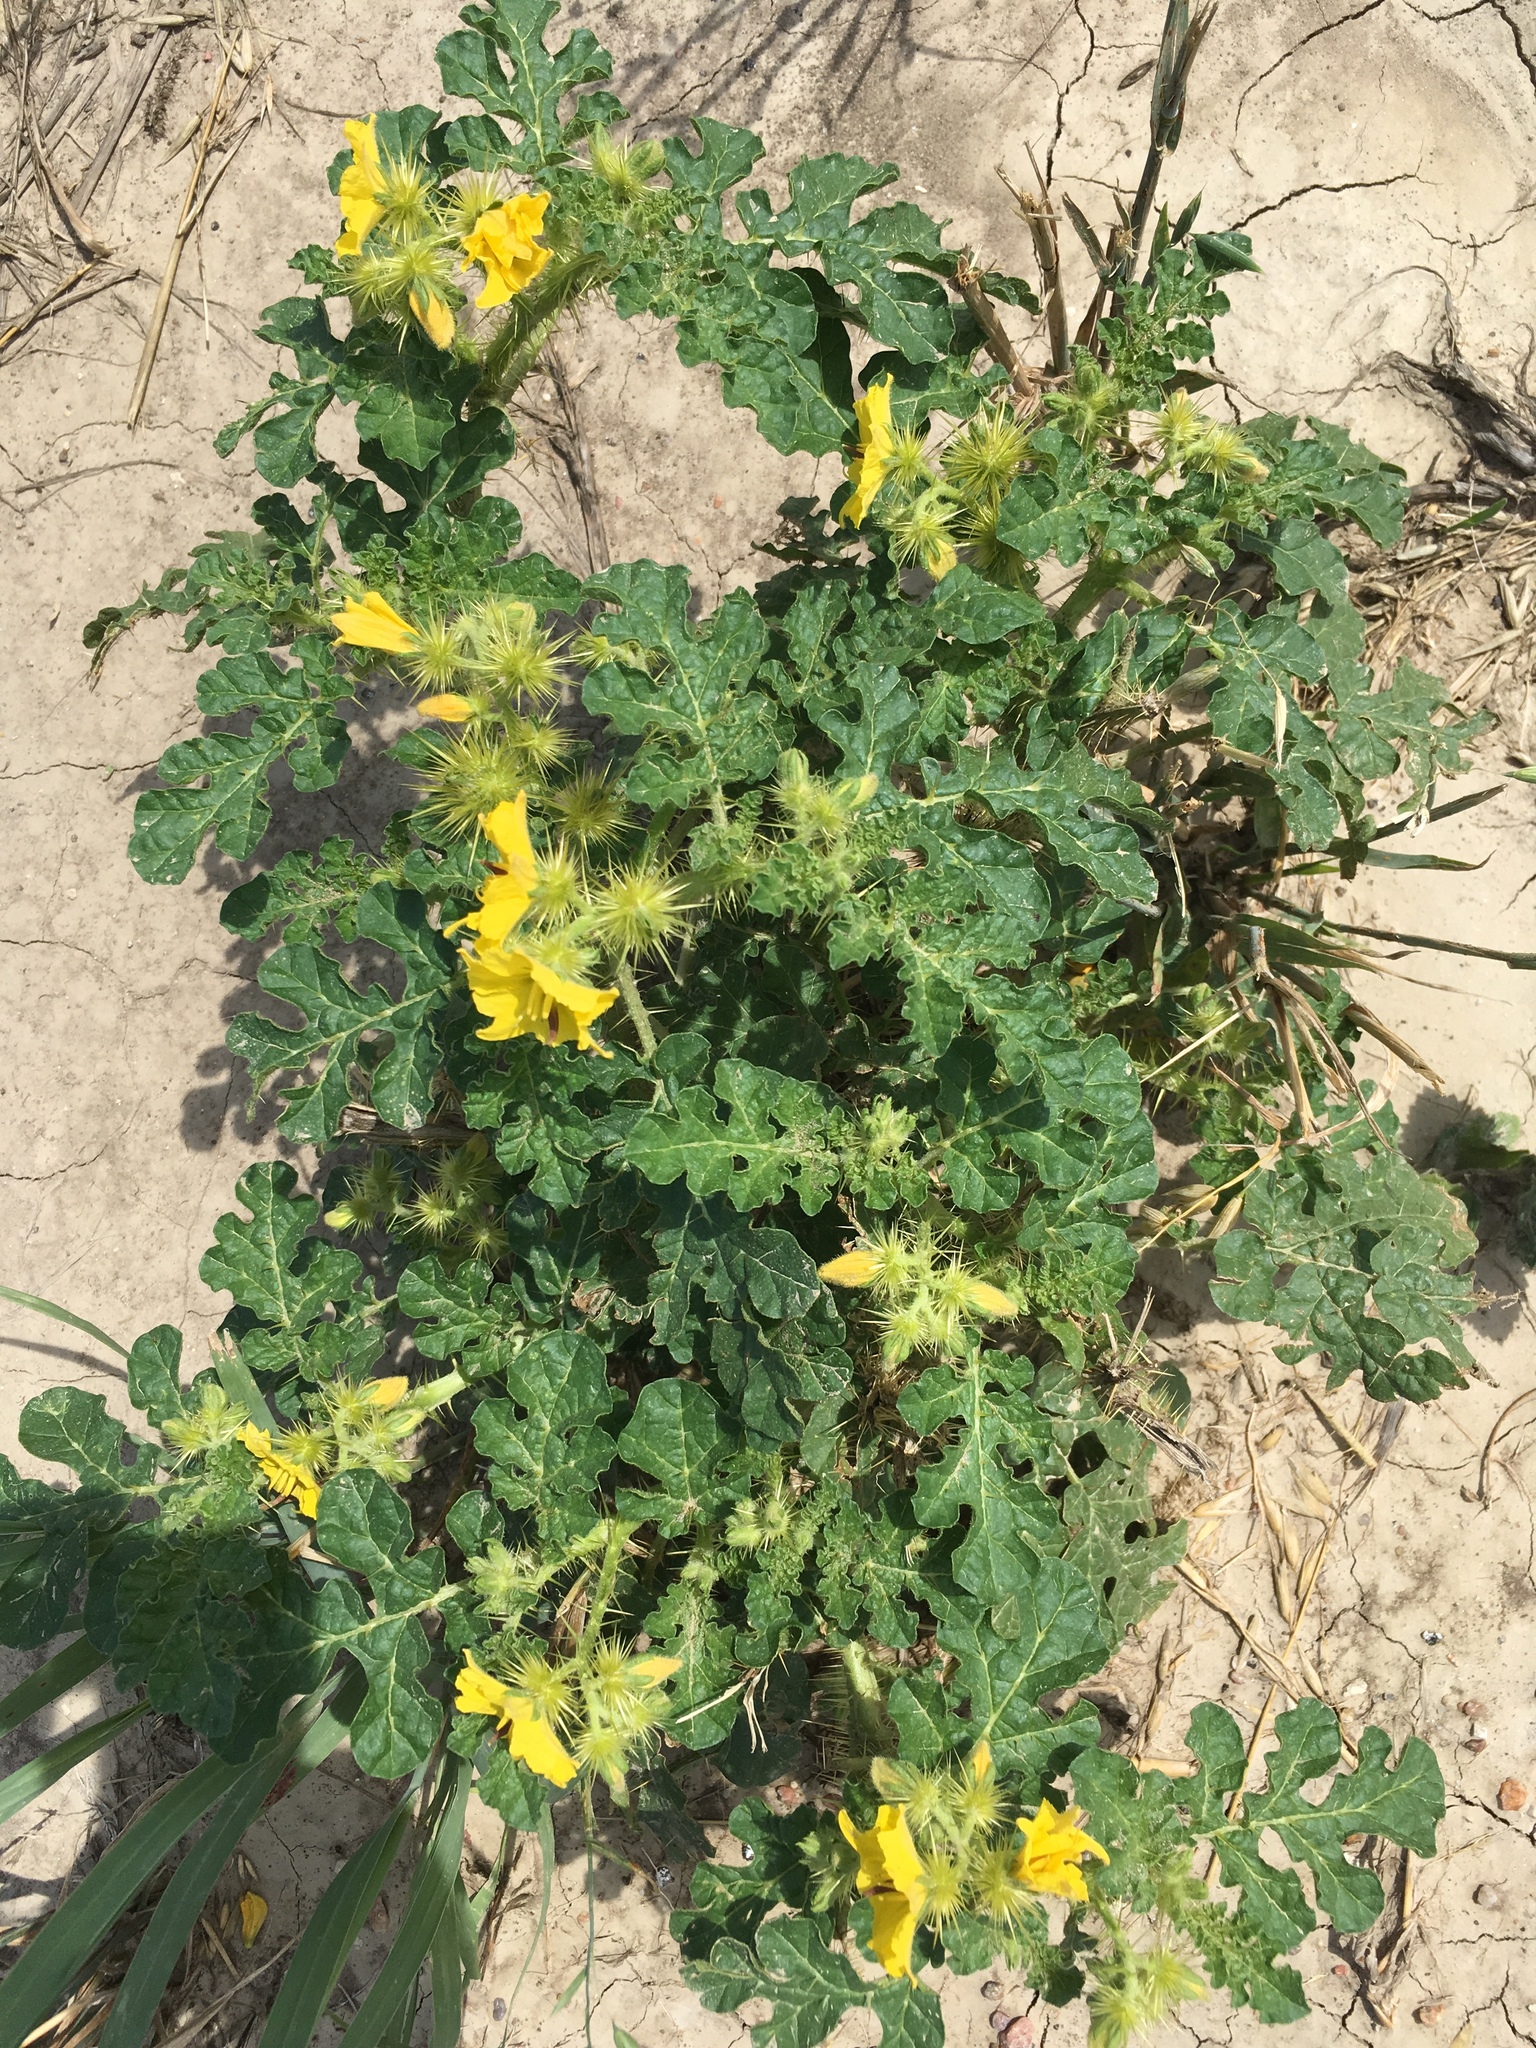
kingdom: Plantae
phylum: Tracheophyta
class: Magnoliopsida
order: Solanales
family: Solanaceae
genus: Solanum
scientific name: Solanum angustifolium
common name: Buffalobur nightshade
